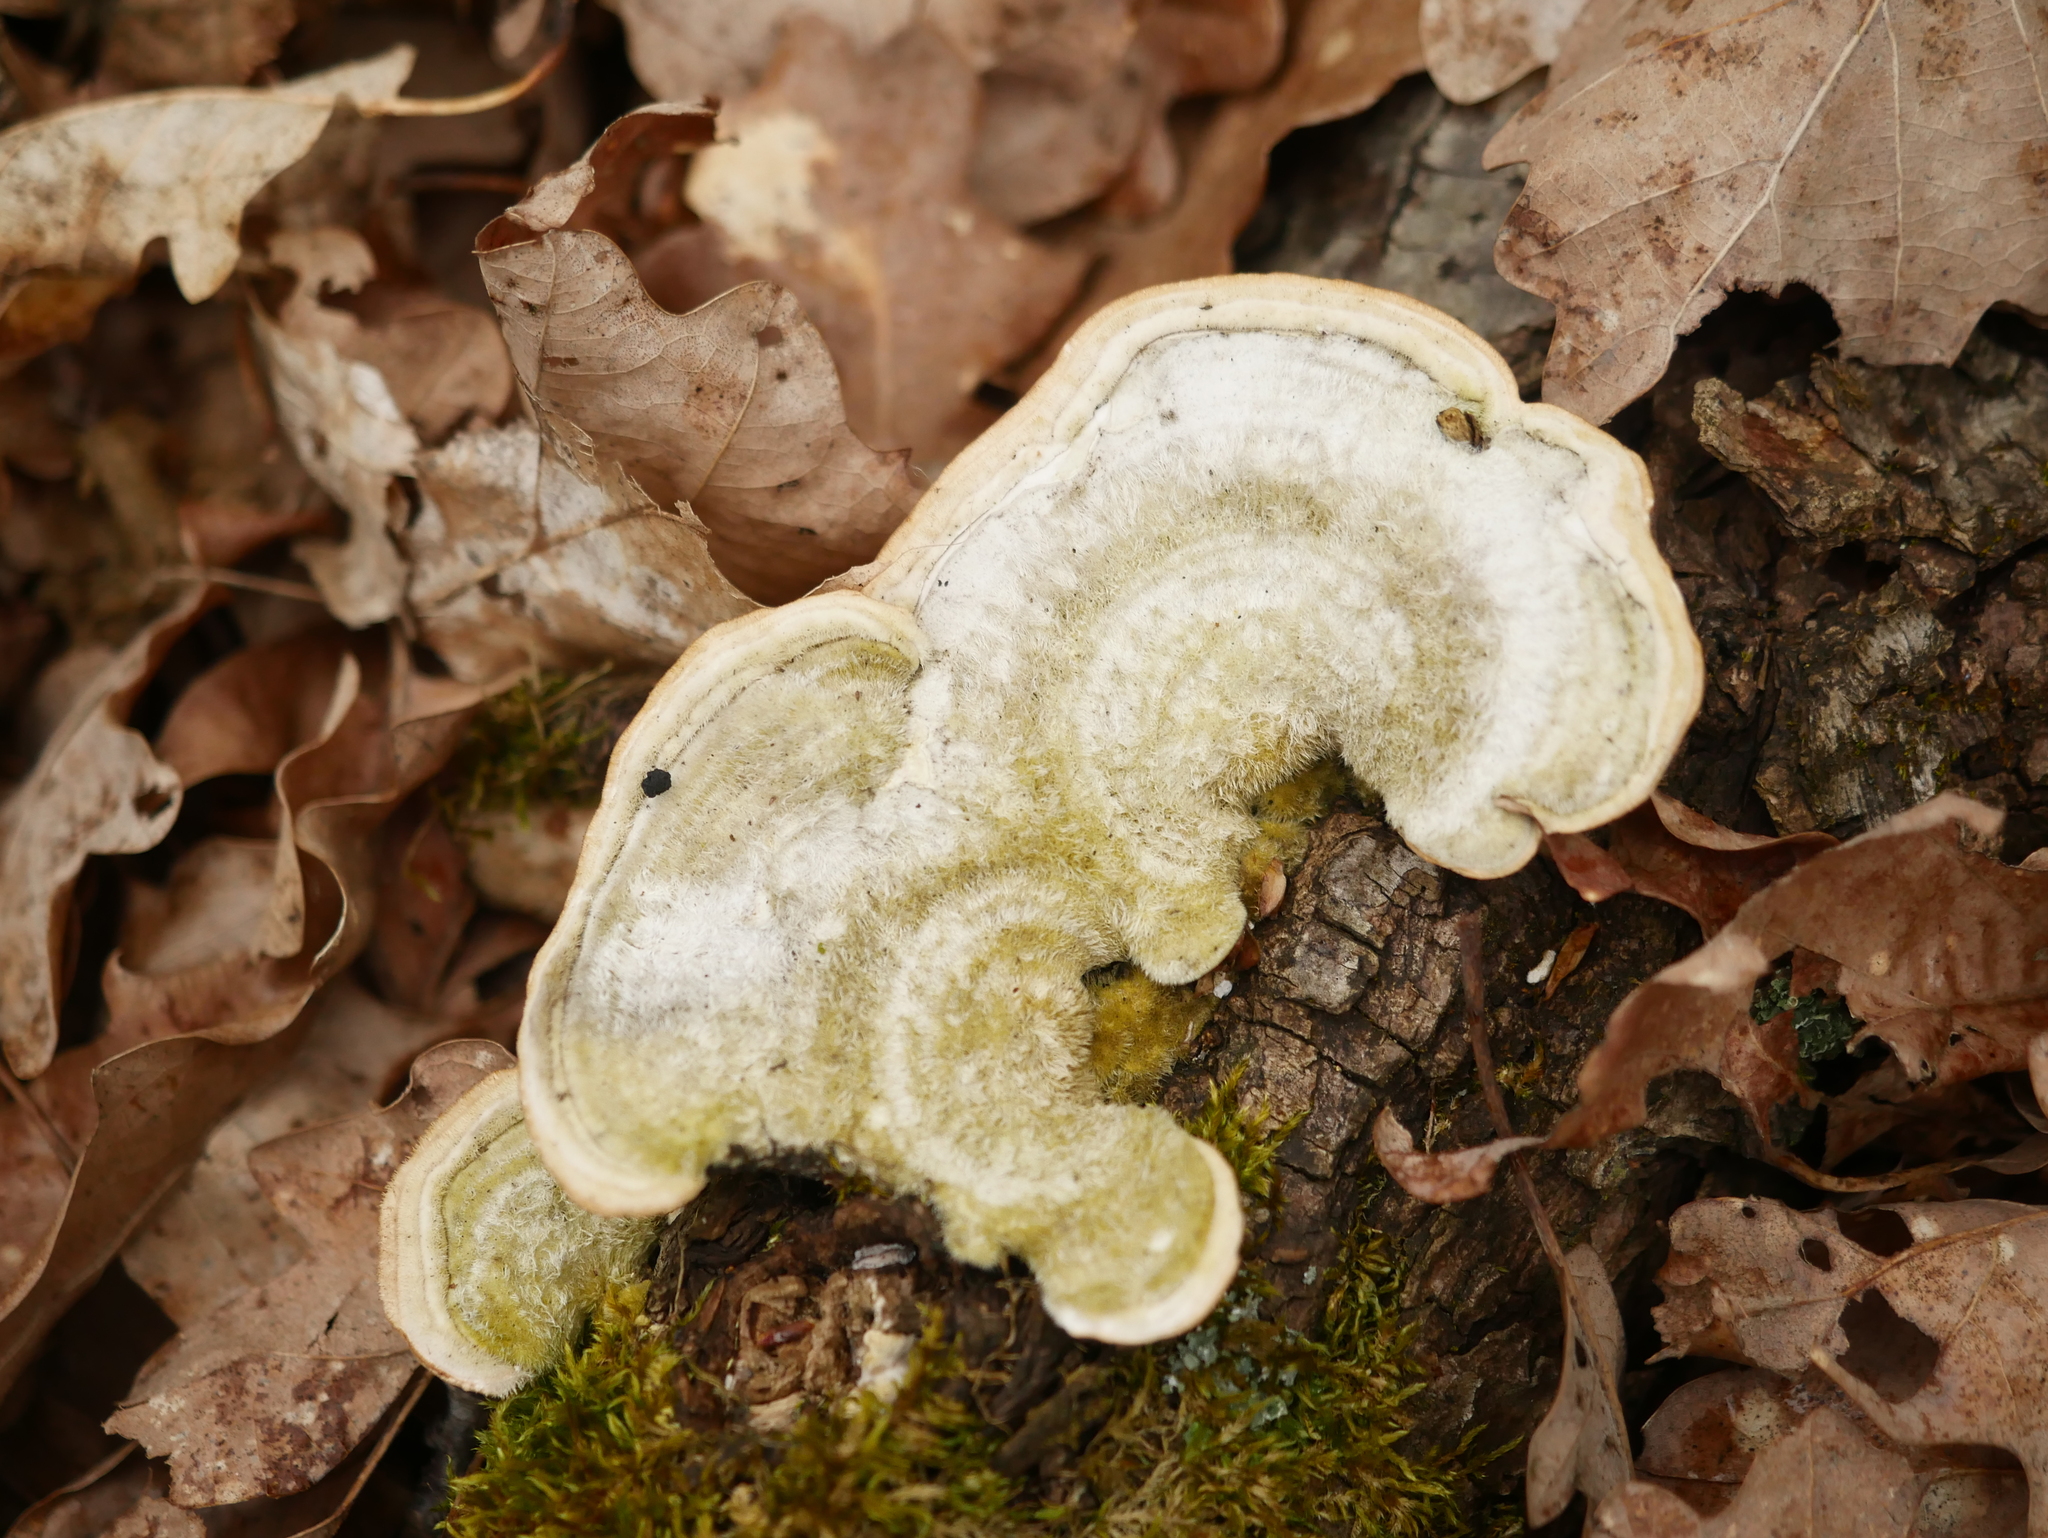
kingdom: Fungi
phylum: Basidiomycota
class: Agaricomycetes
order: Polyporales
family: Polyporaceae
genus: Trametes
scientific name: Trametes hirsuta
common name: Hairy bracket
